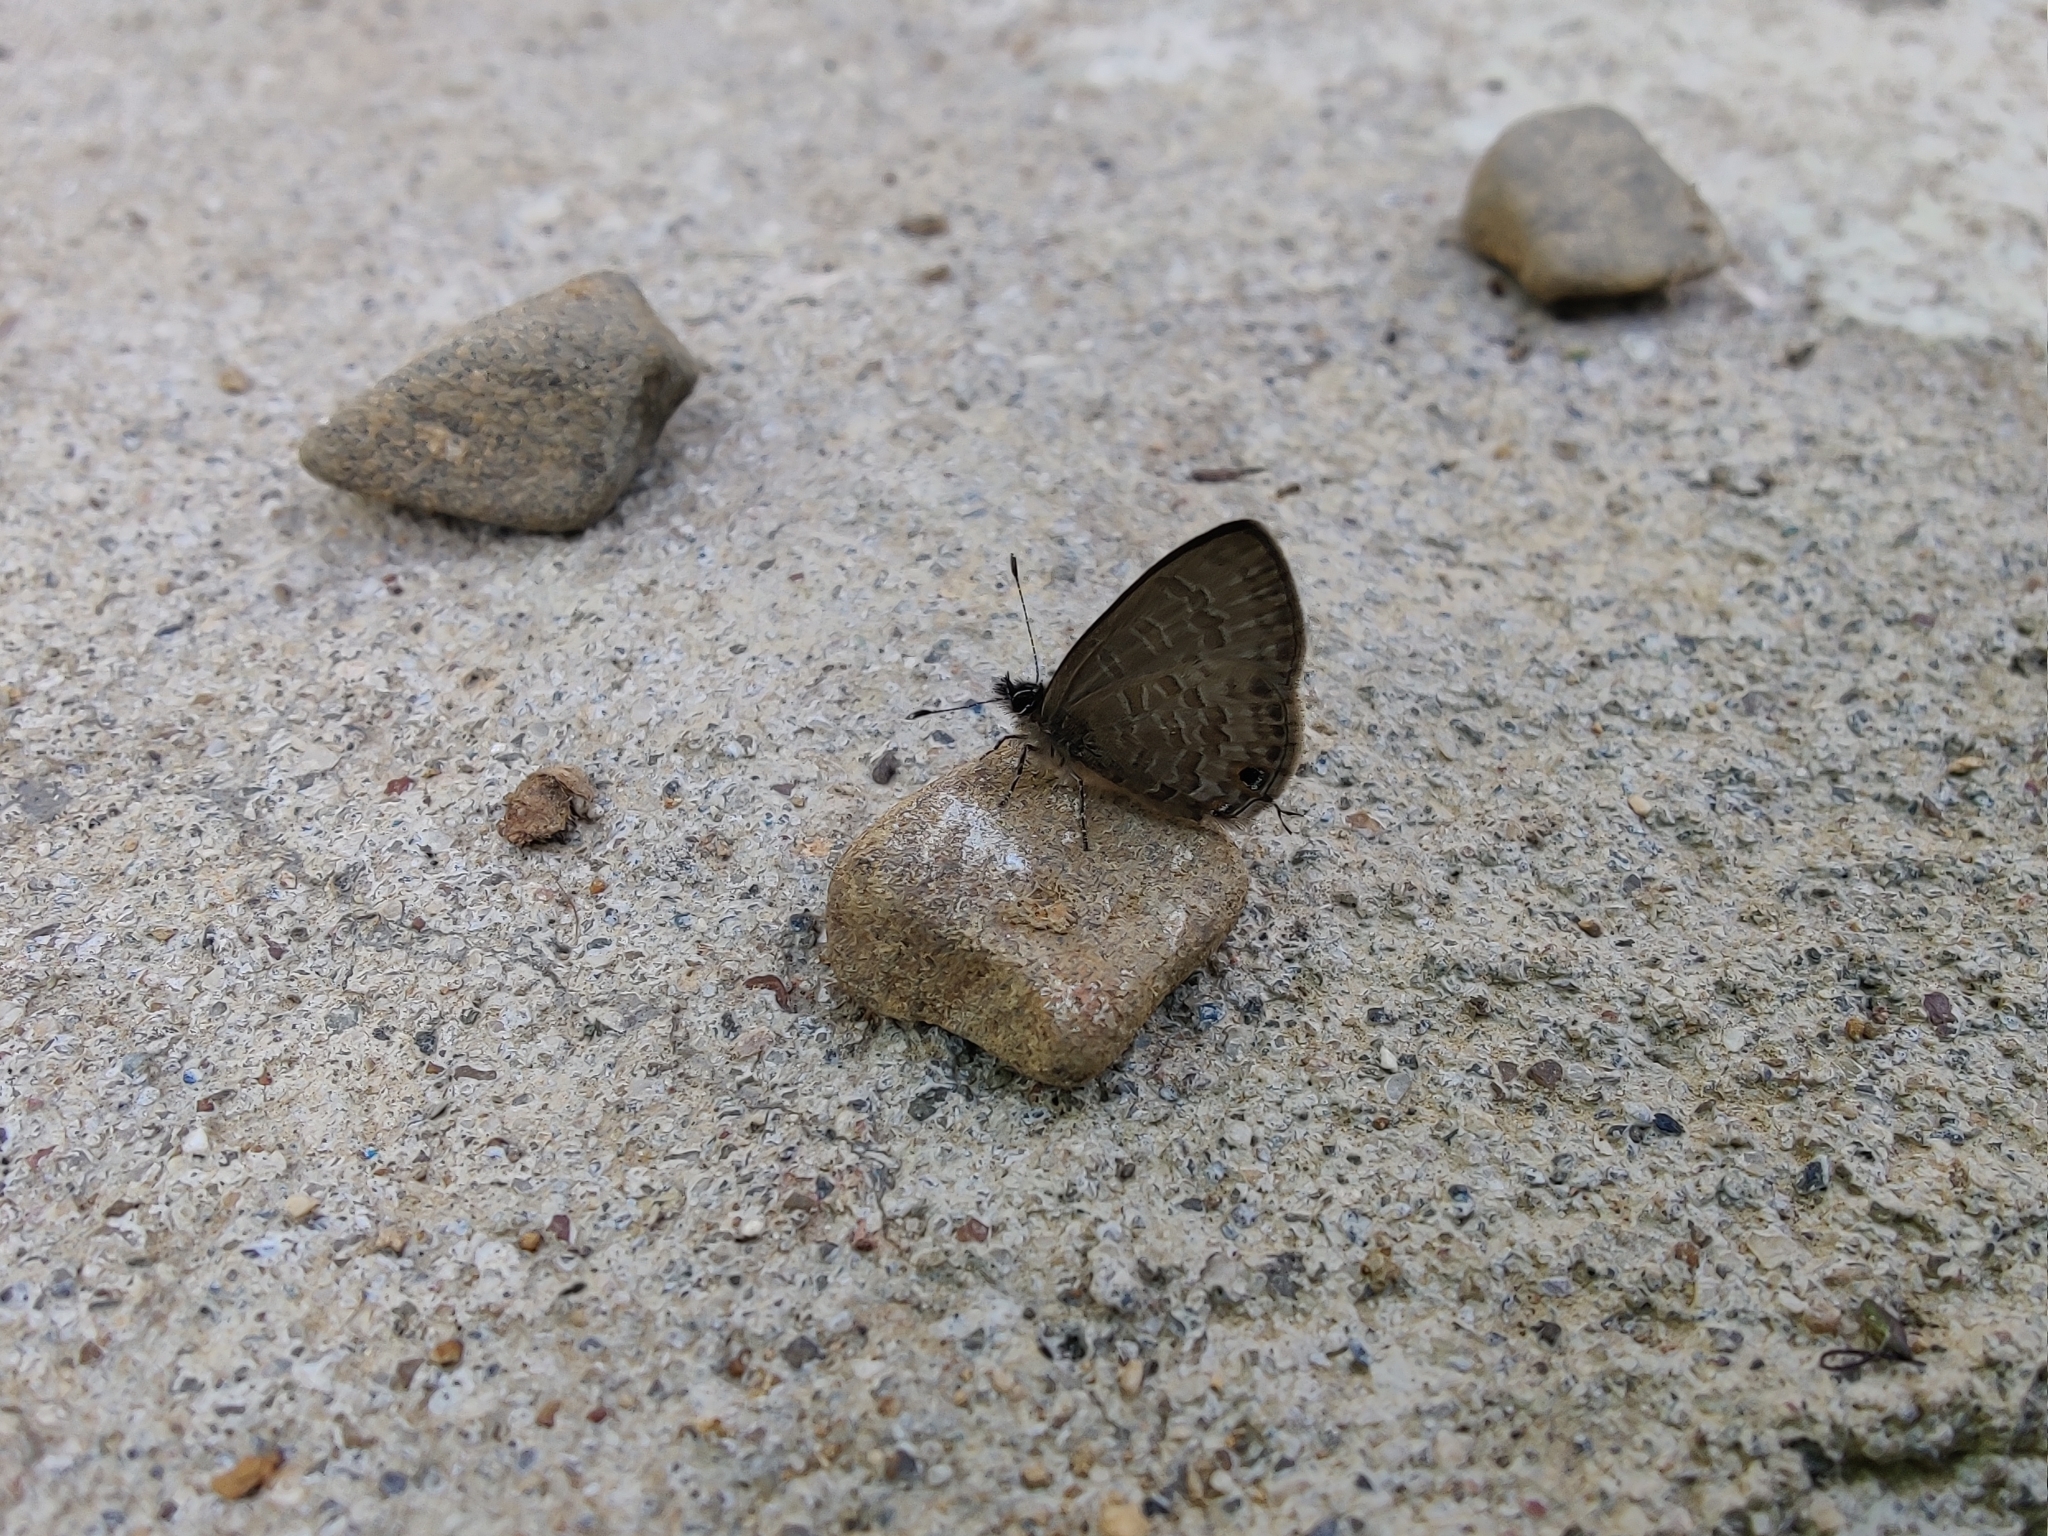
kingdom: Animalia
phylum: Arthropoda
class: Insecta
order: Lepidoptera
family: Lycaenidae
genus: Prosotas
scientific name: Prosotas nora
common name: Common line blue
